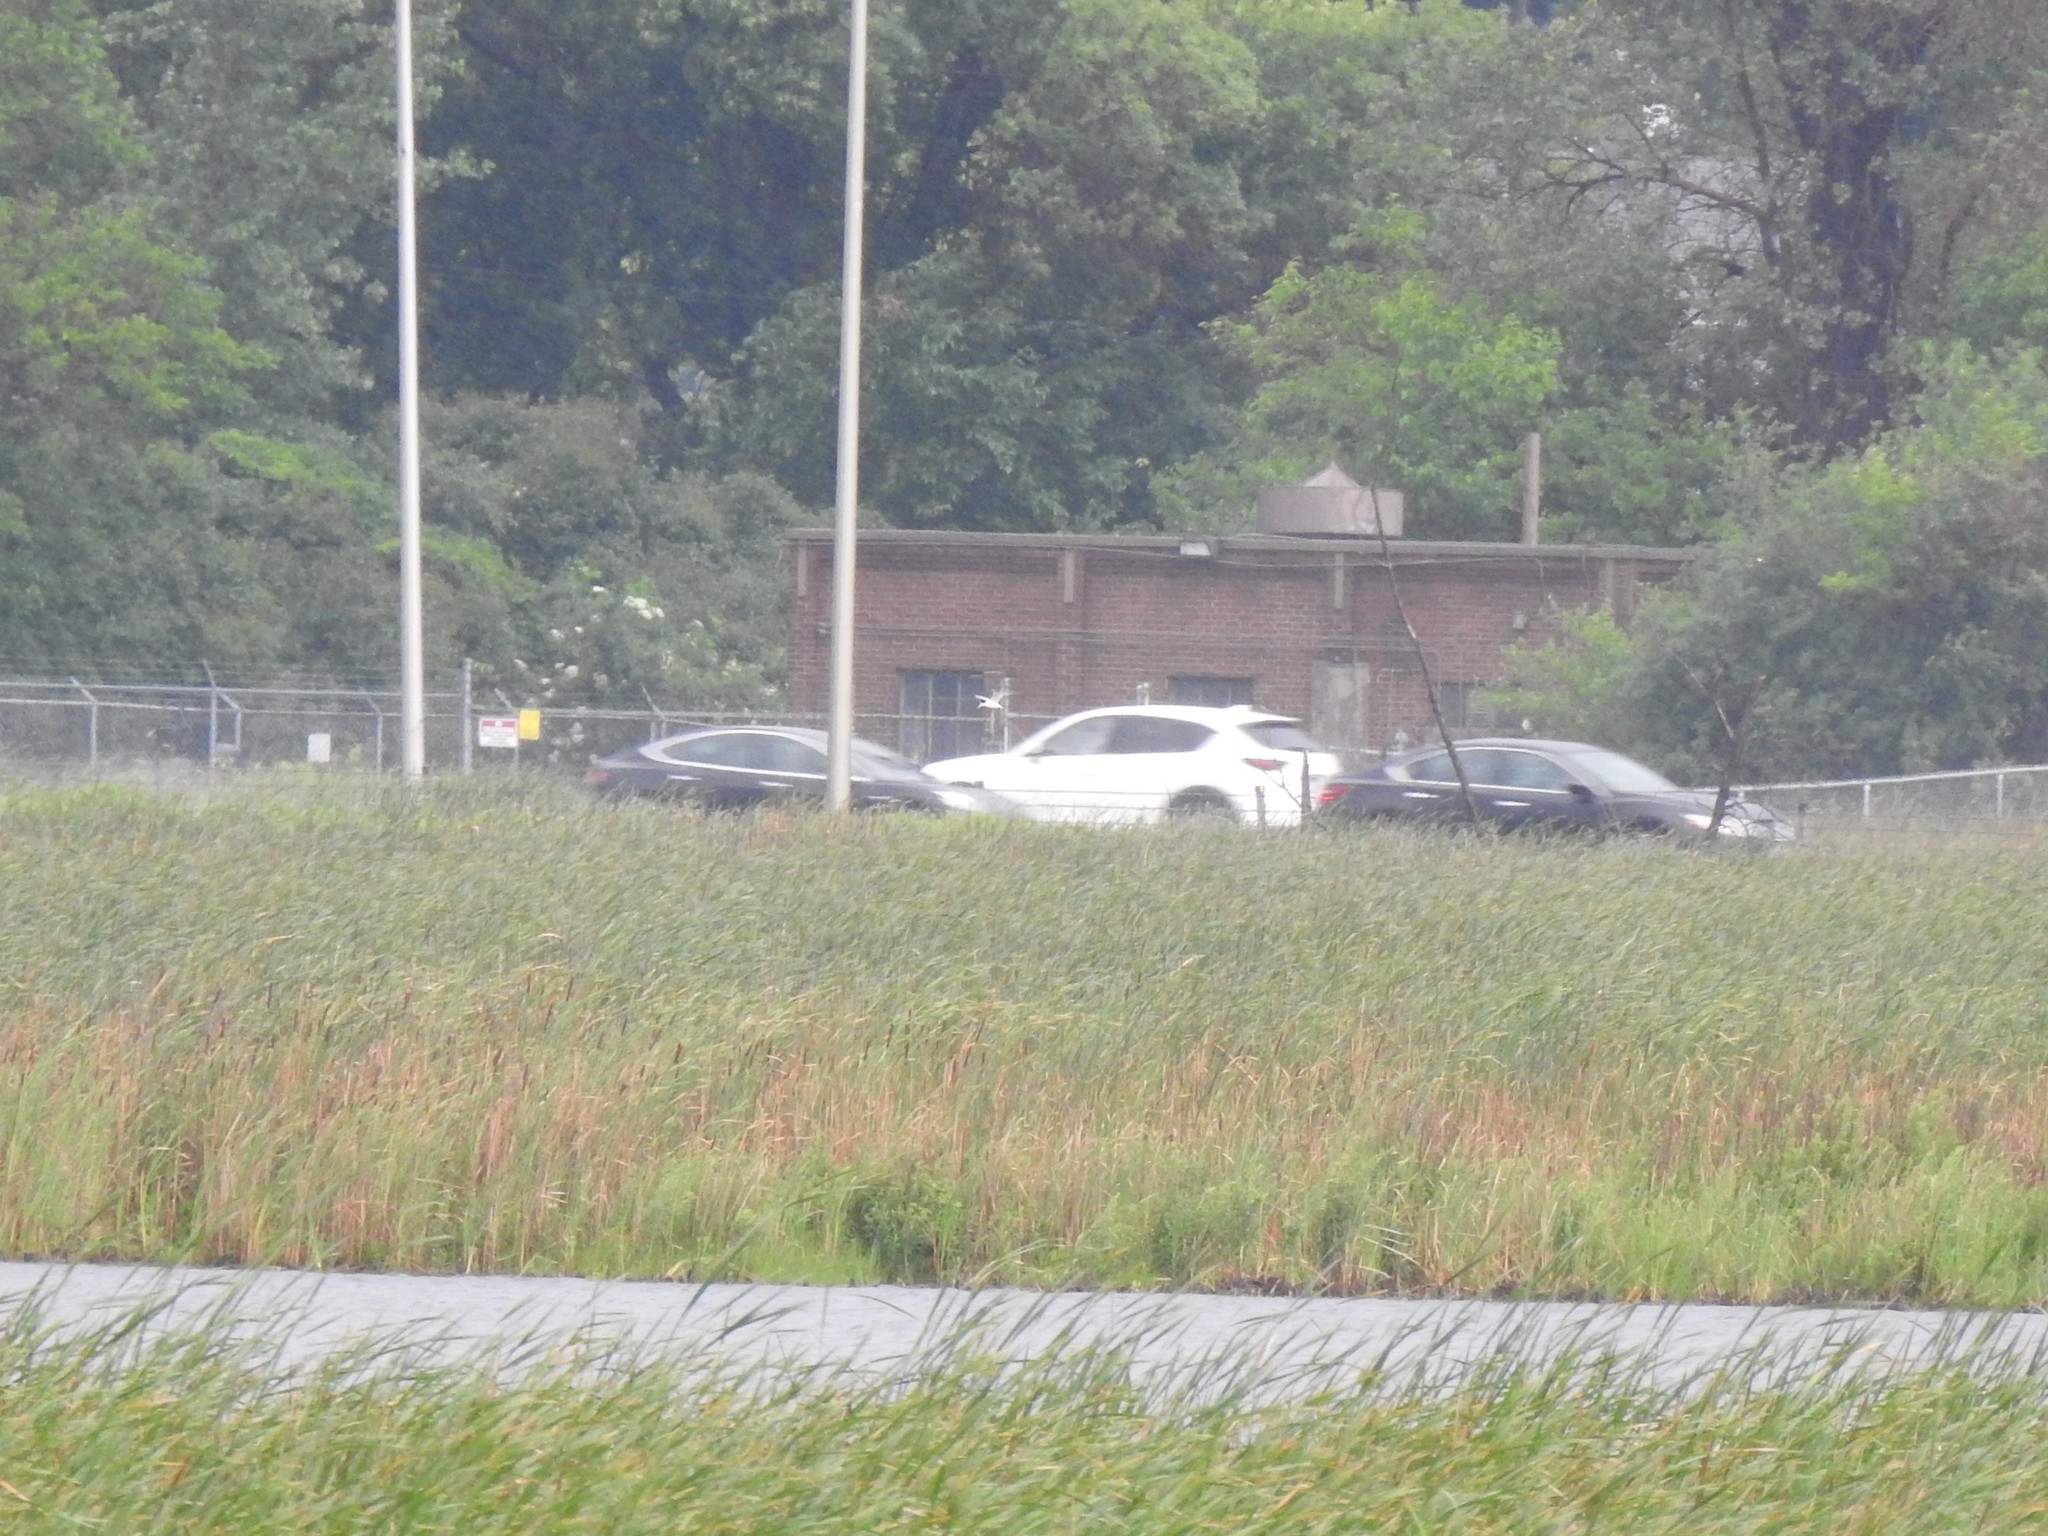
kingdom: Animalia
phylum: Chordata
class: Aves
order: Charadriiformes
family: Laridae
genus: Sternula
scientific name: Sternula antillarum
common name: Least tern
